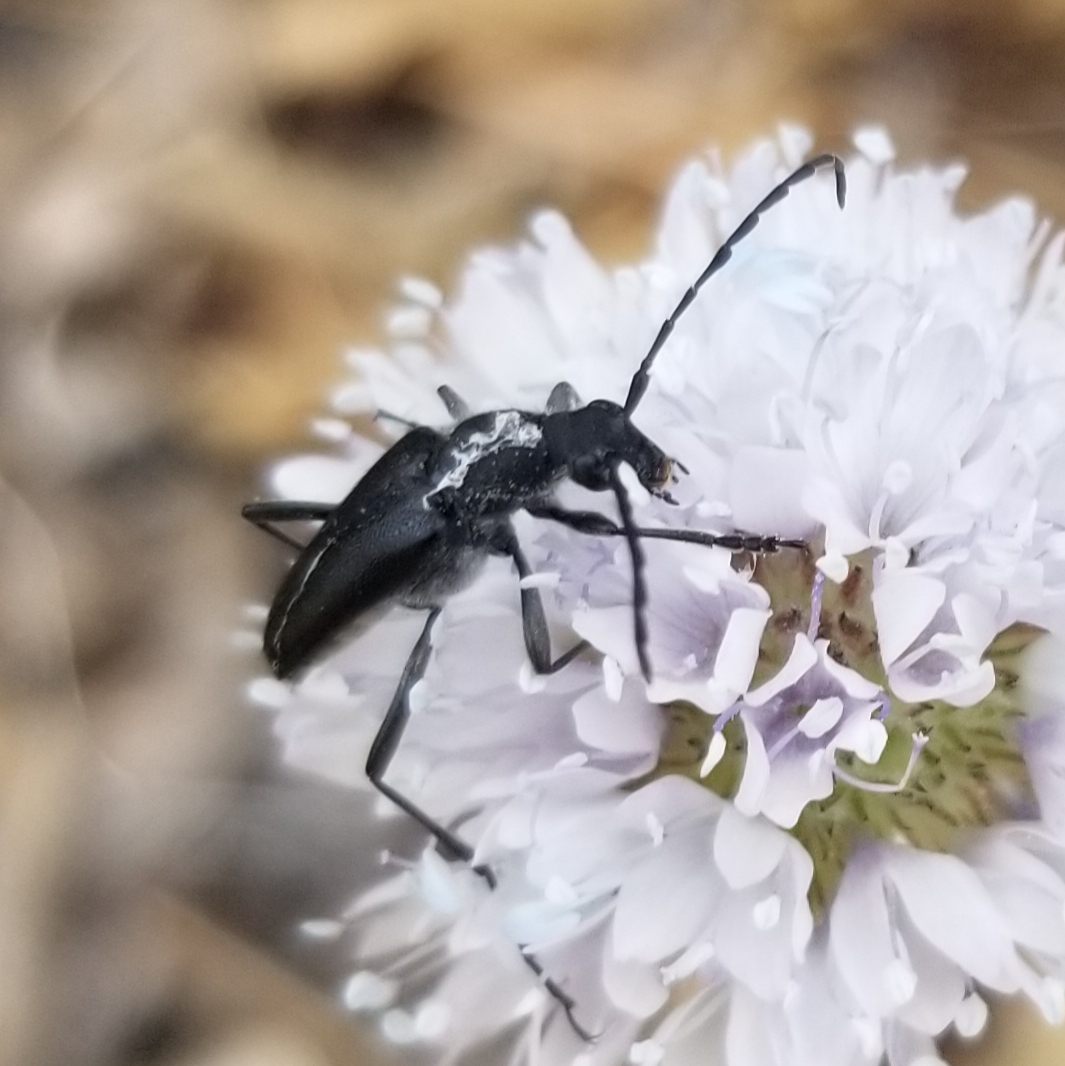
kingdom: Animalia
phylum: Arthropoda
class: Insecta
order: Coleoptera
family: Cerambycidae
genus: Anastrangalia
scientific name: Anastrangalia laetifica
